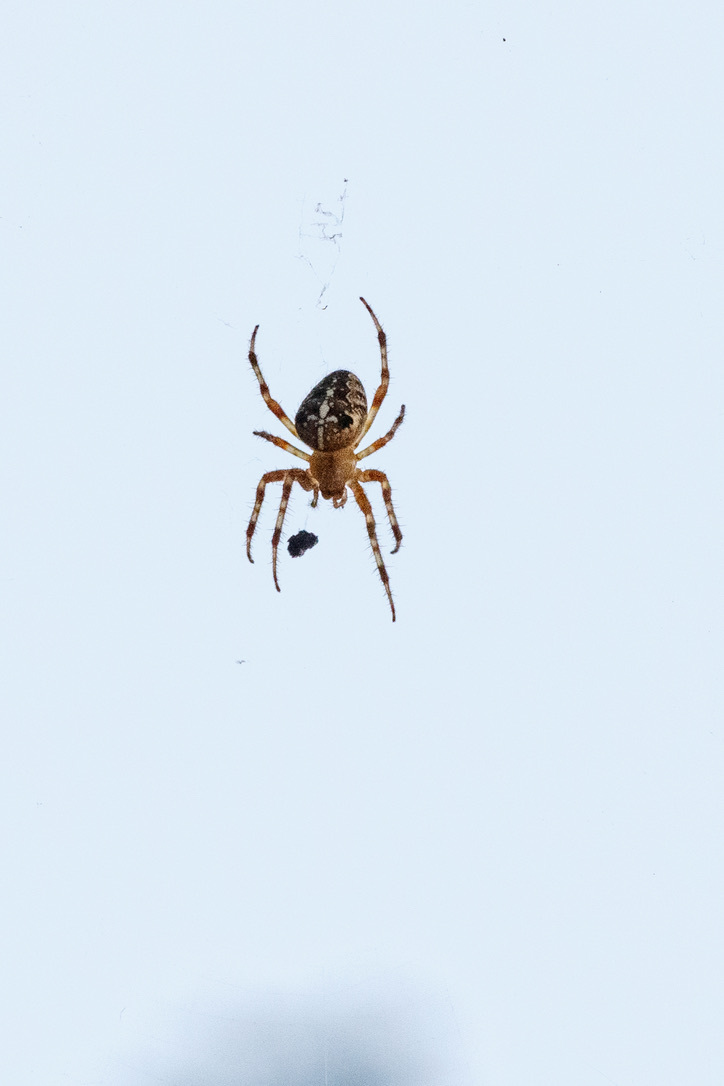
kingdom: Animalia
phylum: Arthropoda
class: Arachnida
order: Araneae
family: Araneidae
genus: Araneus
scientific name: Araneus diadematus
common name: Cross orbweaver
